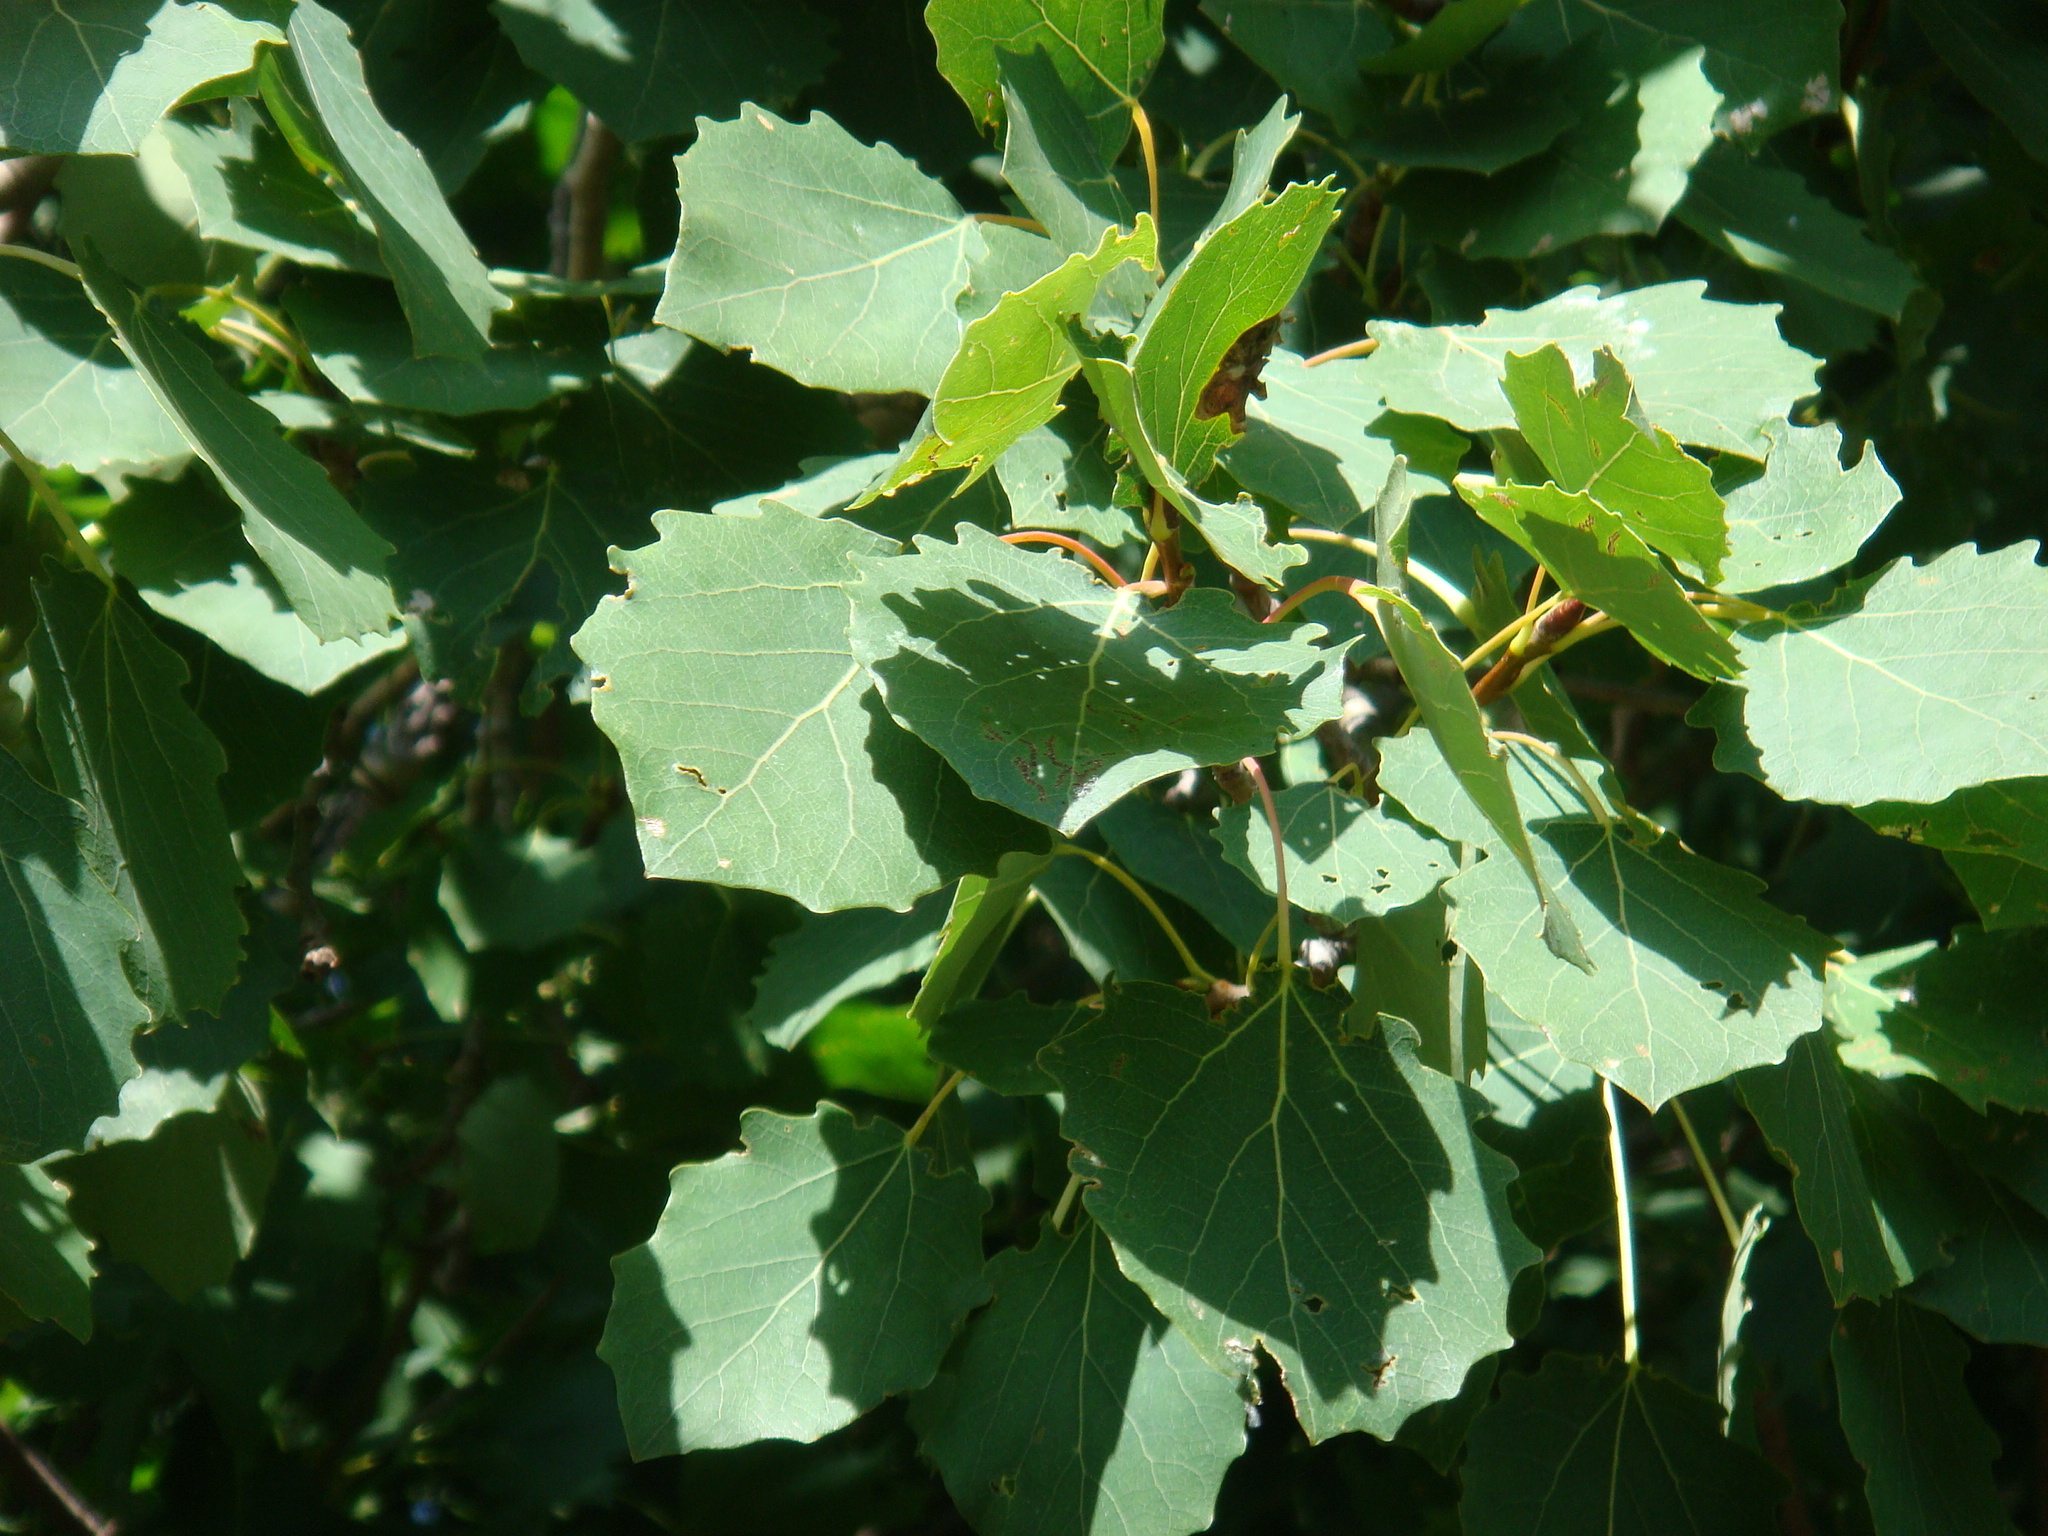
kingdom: Plantae
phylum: Tracheophyta
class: Magnoliopsida
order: Malpighiales
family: Salicaceae
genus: Populus
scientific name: Populus tremula
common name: European aspen
